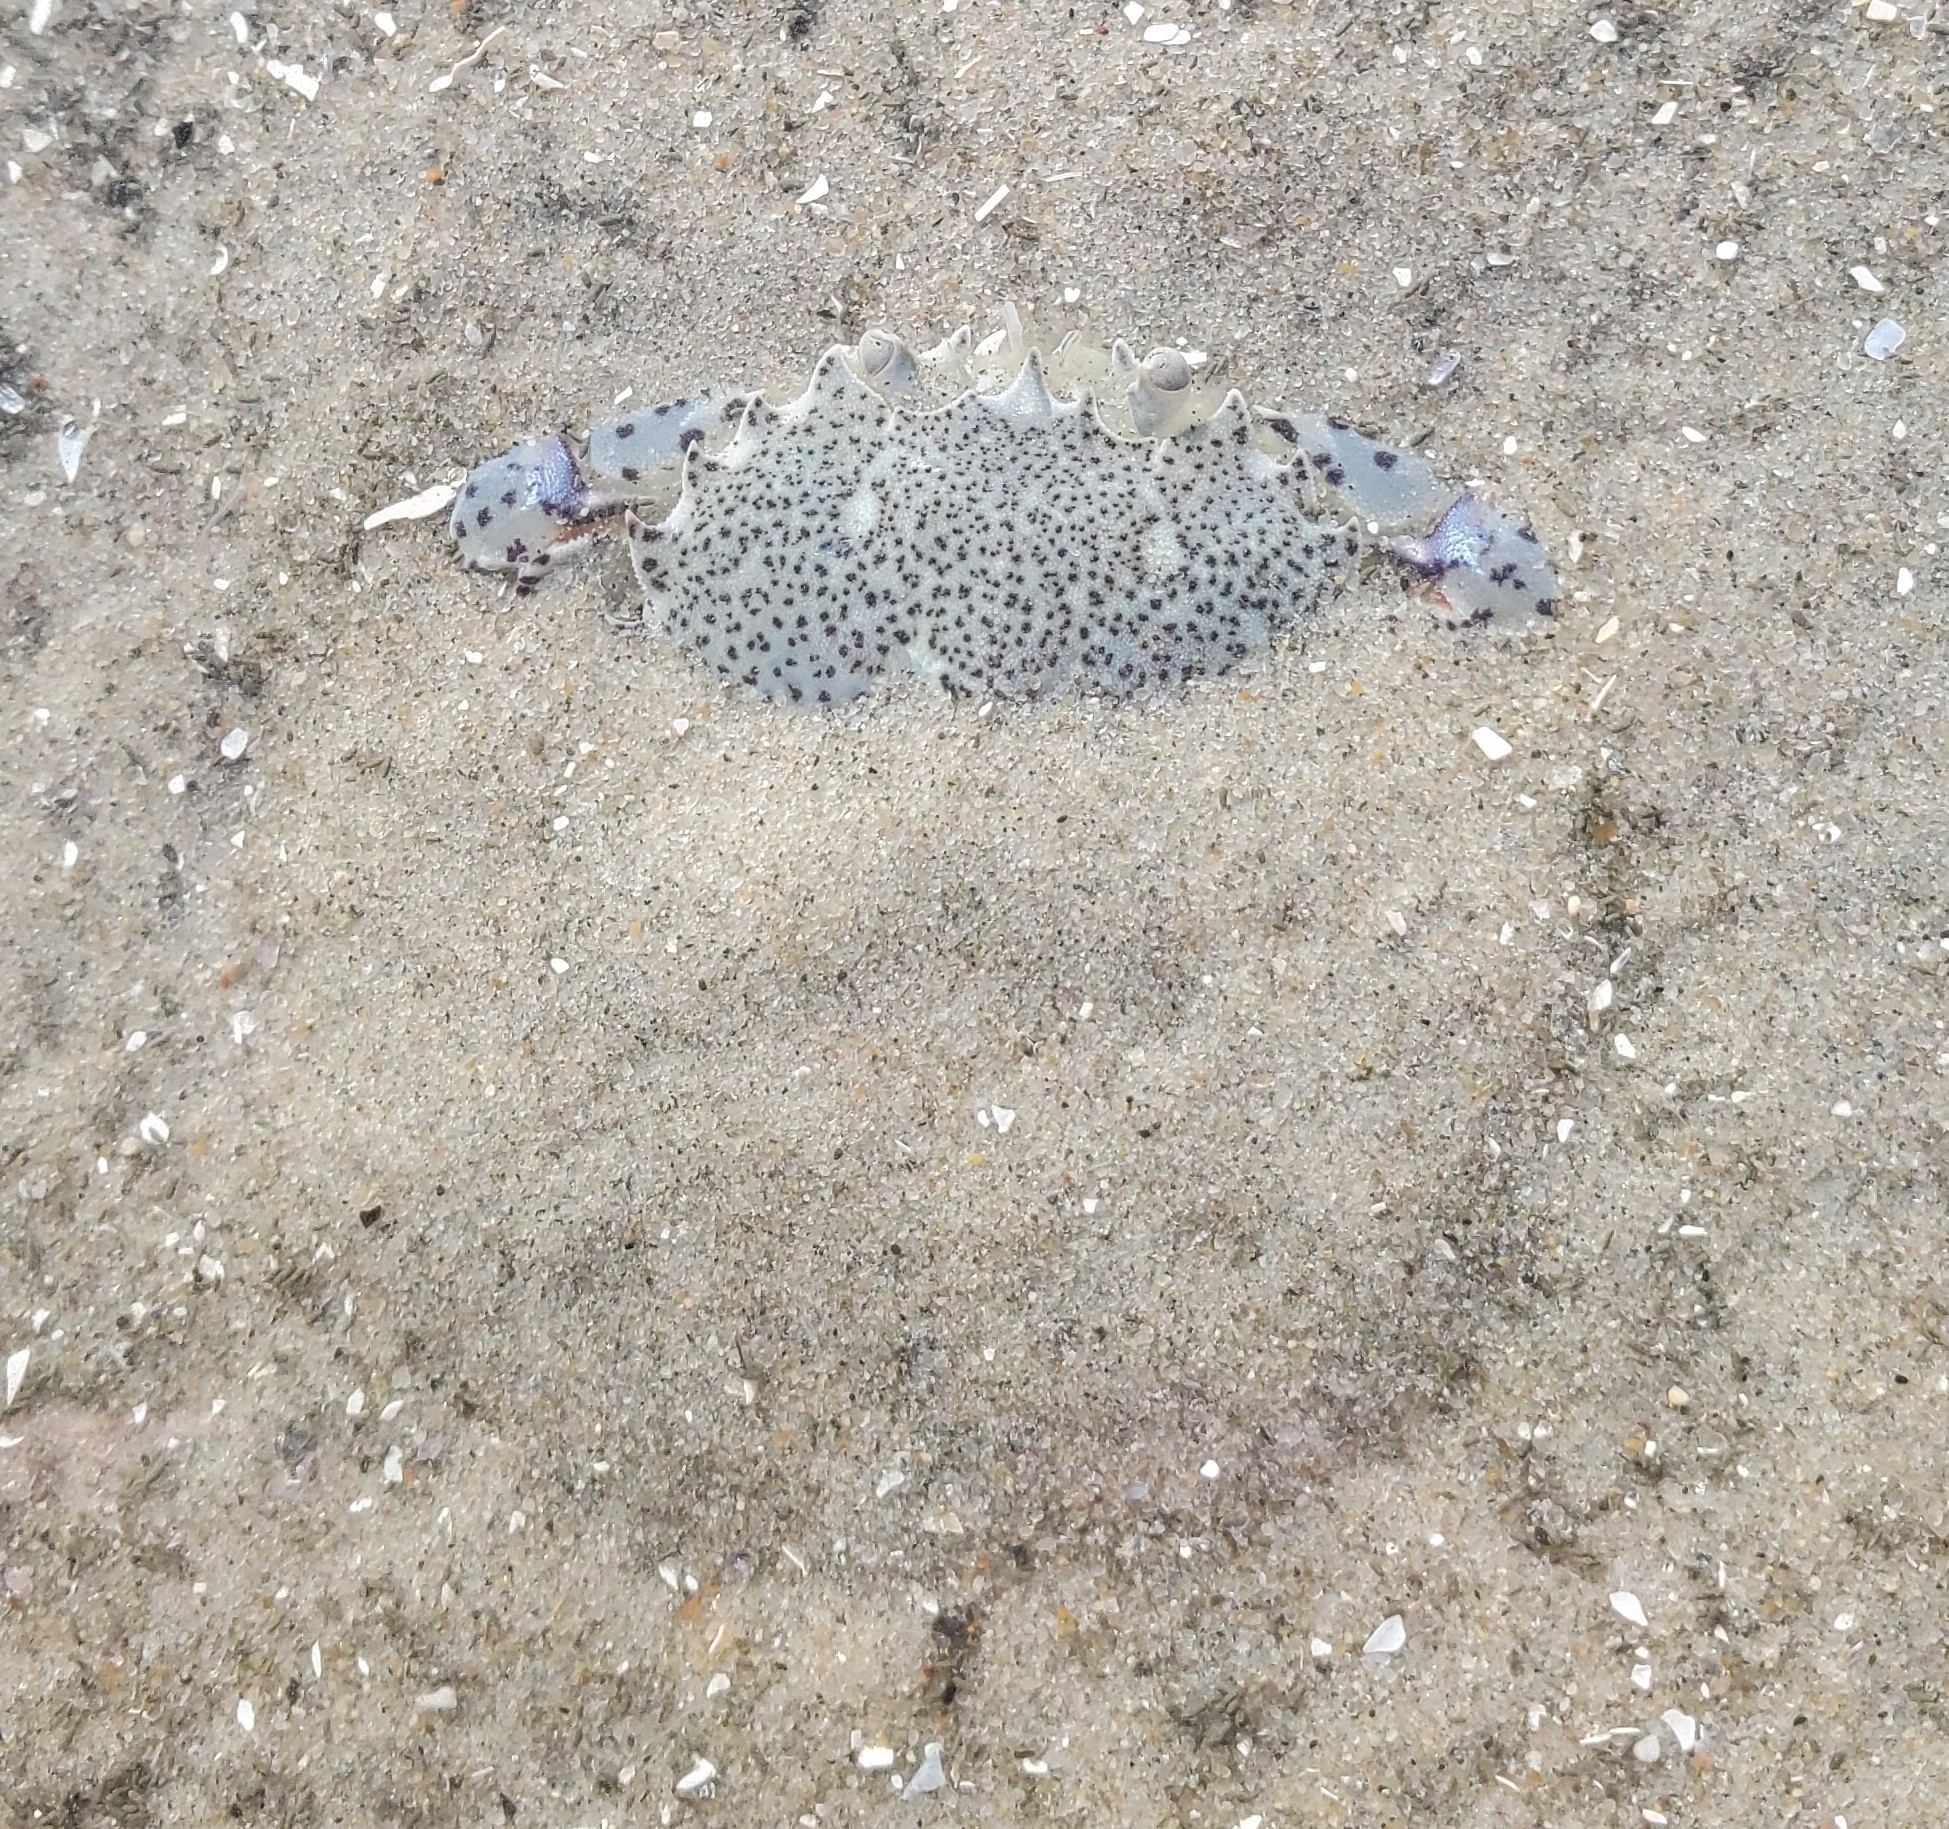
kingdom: Animalia
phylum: Arthropoda
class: Malacostraca
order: Decapoda
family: Ovalipidae
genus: Ovalipes
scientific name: Ovalipes ocellatus
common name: Lady crab
